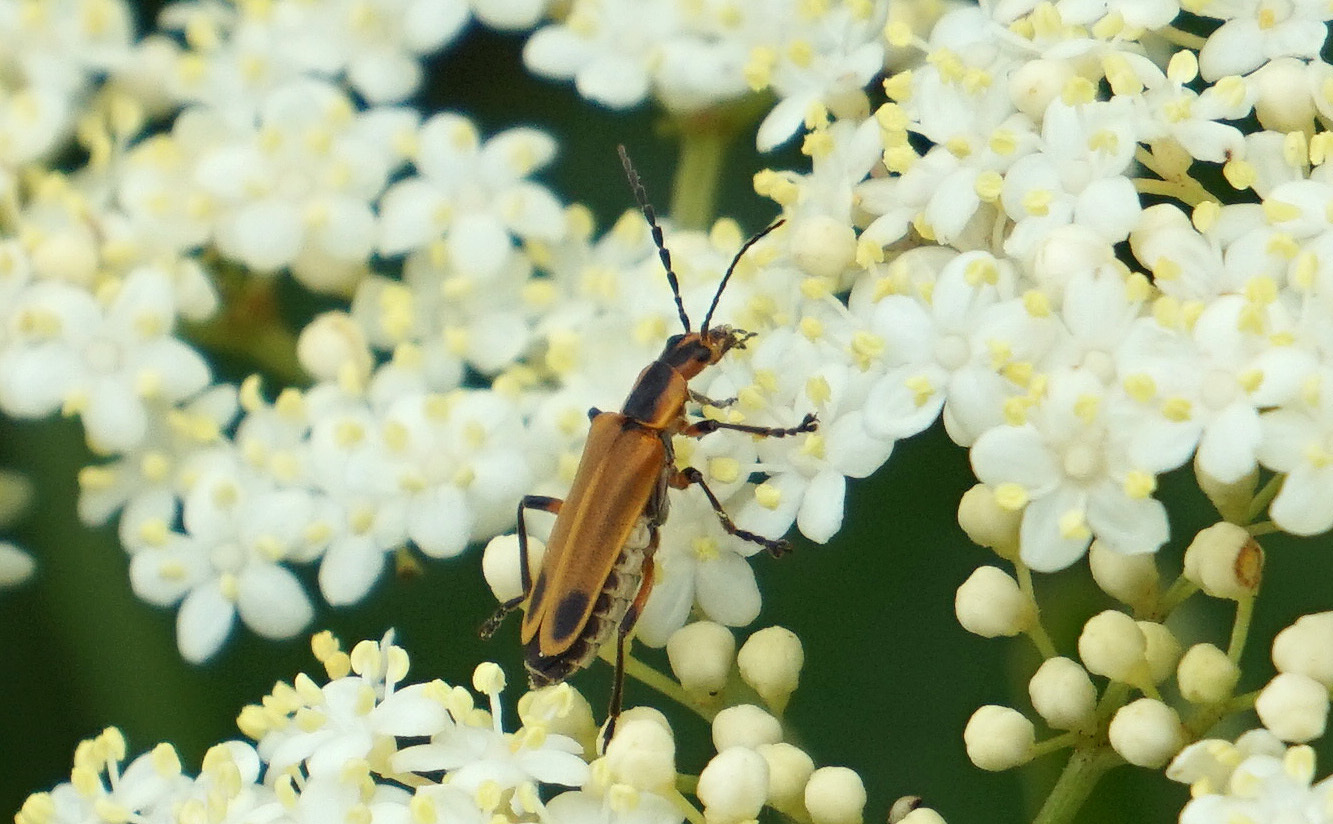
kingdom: Animalia
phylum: Arthropoda
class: Insecta
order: Coleoptera
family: Cantharidae
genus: Chauliognathus
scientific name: Chauliognathus marginatus
